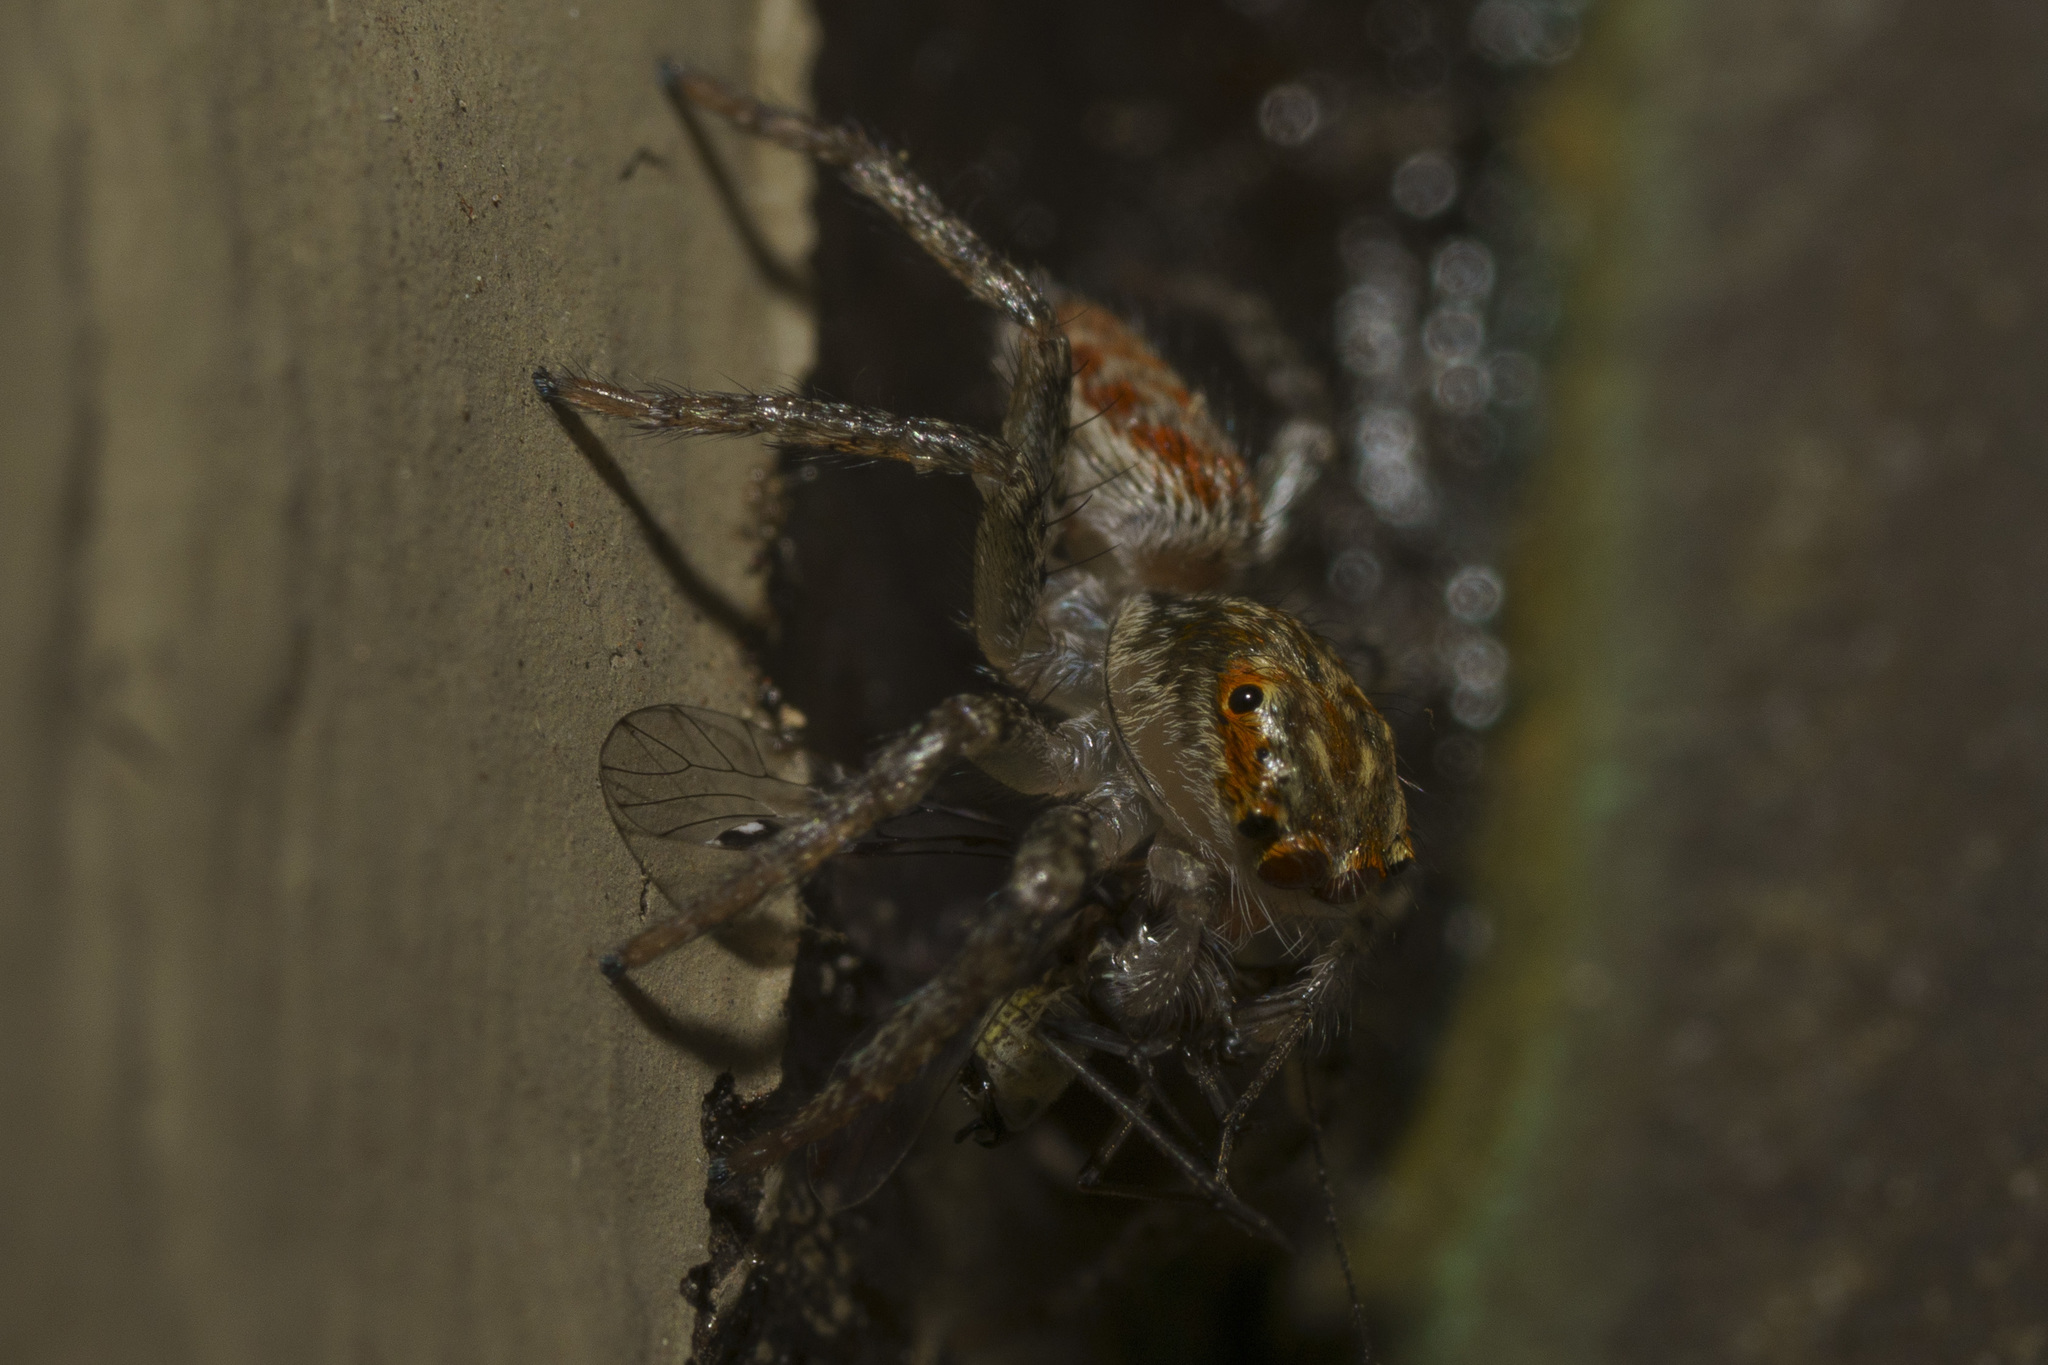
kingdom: Animalia
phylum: Arthropoda
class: Arachnida
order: Araneae
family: Salticidae
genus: Maevia
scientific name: Maevia inclemens
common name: Dimorphic jumper
